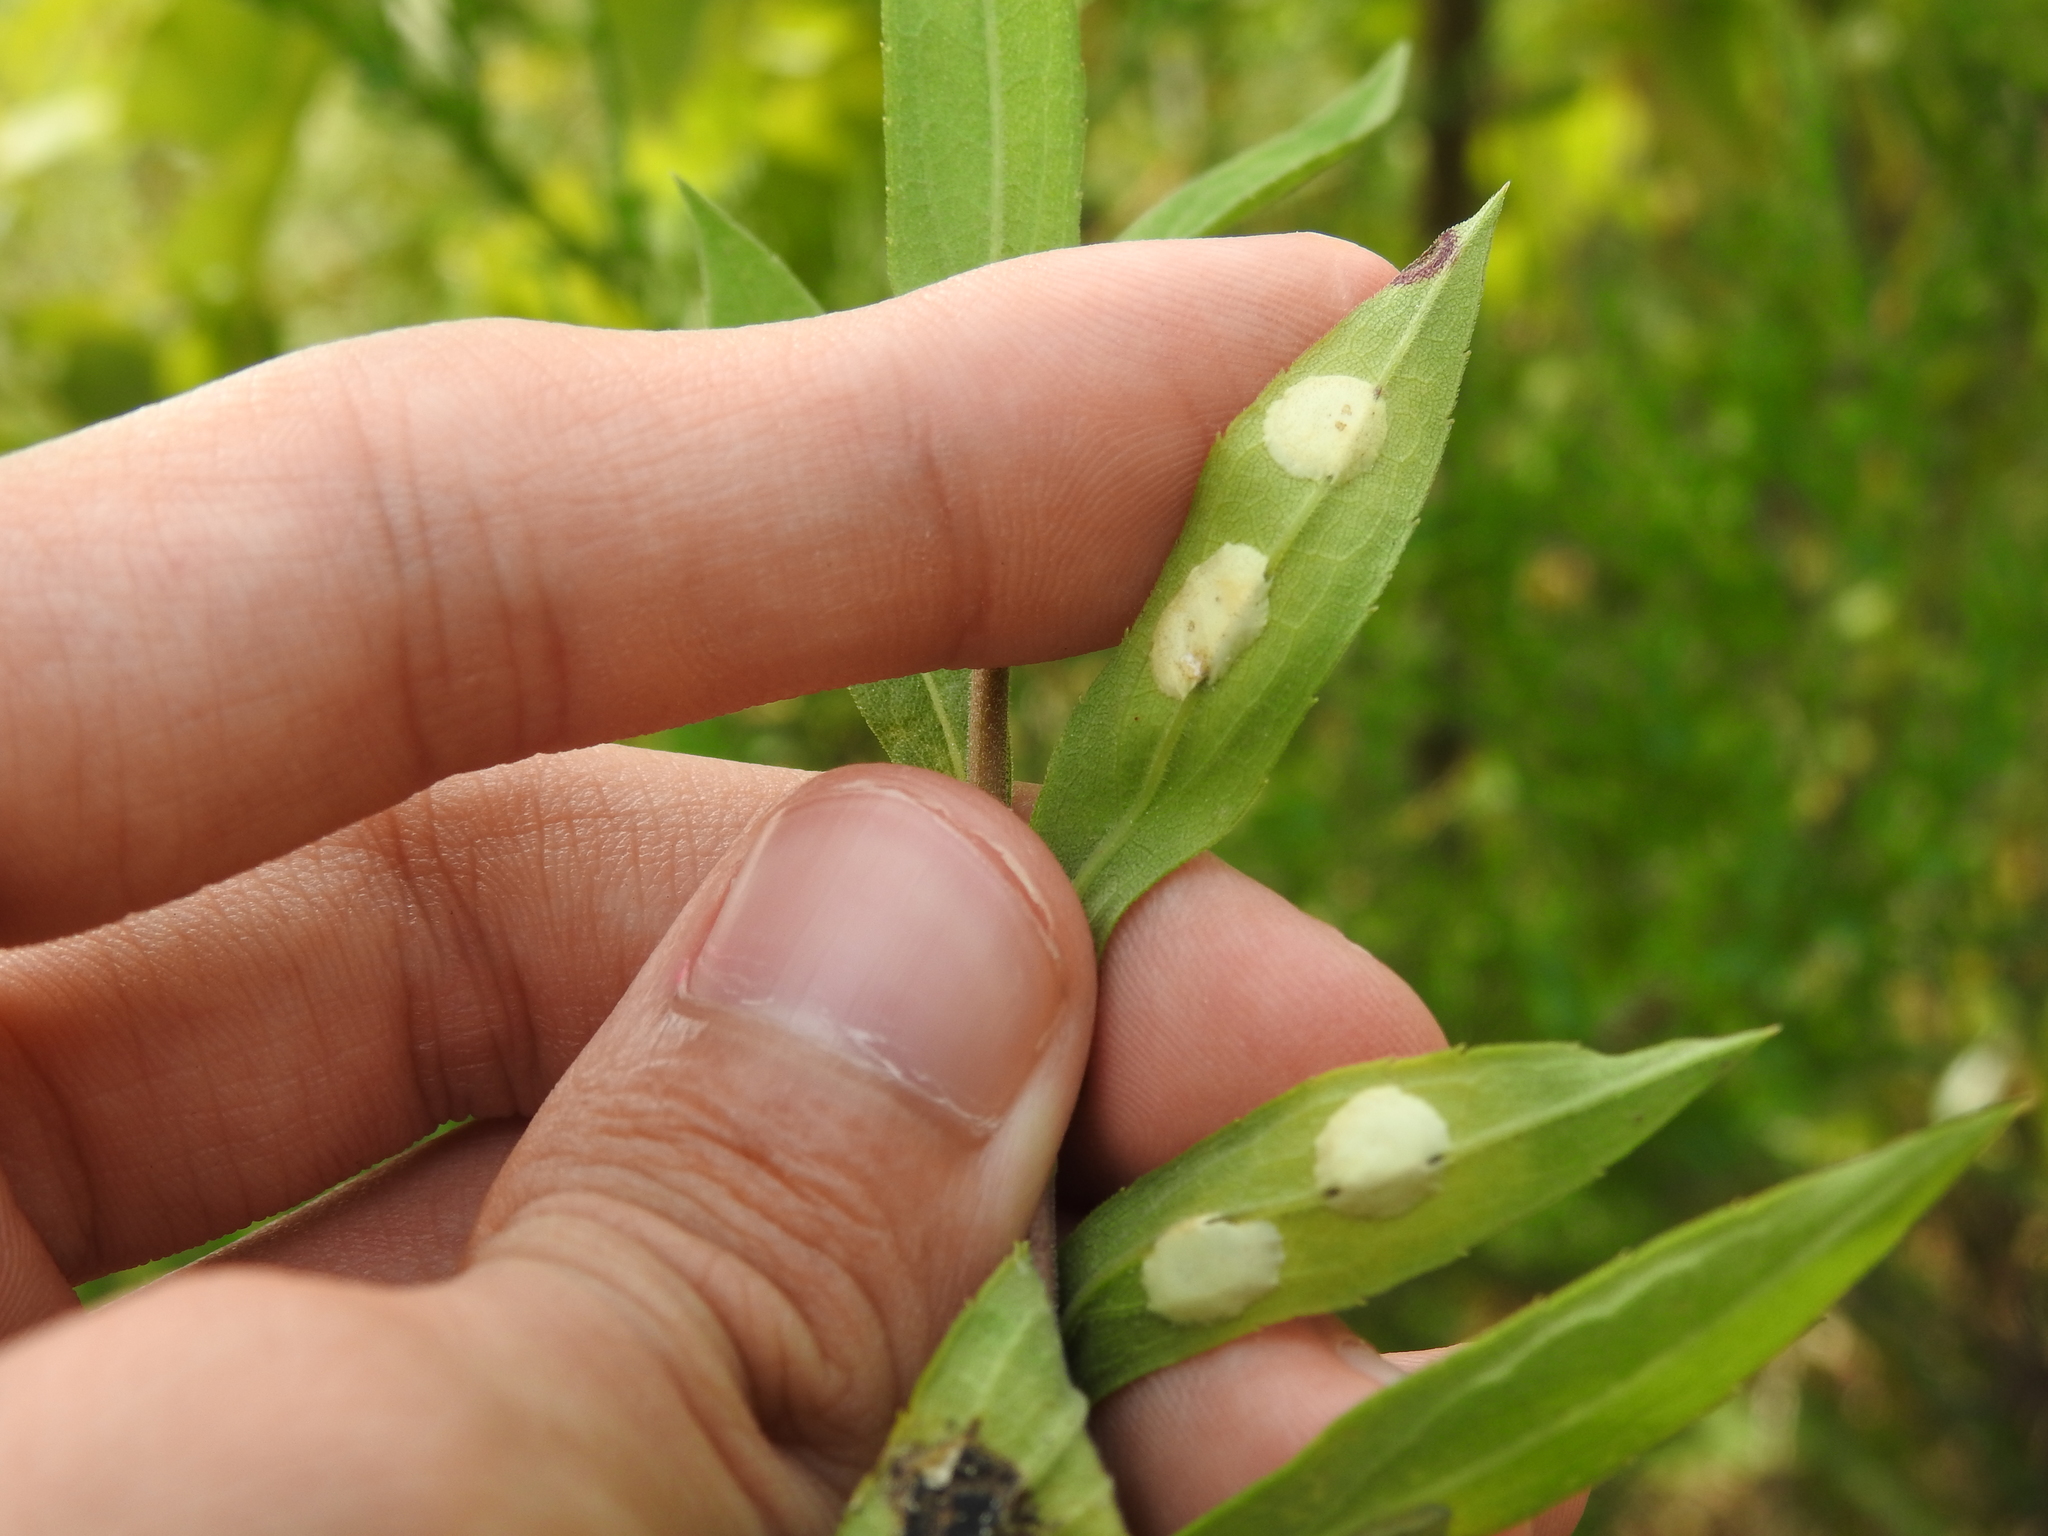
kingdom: Animalia
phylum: Arthropoda
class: Insecta
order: Diptera
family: Cecidomyiidae
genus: Asteromyia
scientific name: Asteromyia carbonifera
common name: Carbonifera goldenrod gall midge
